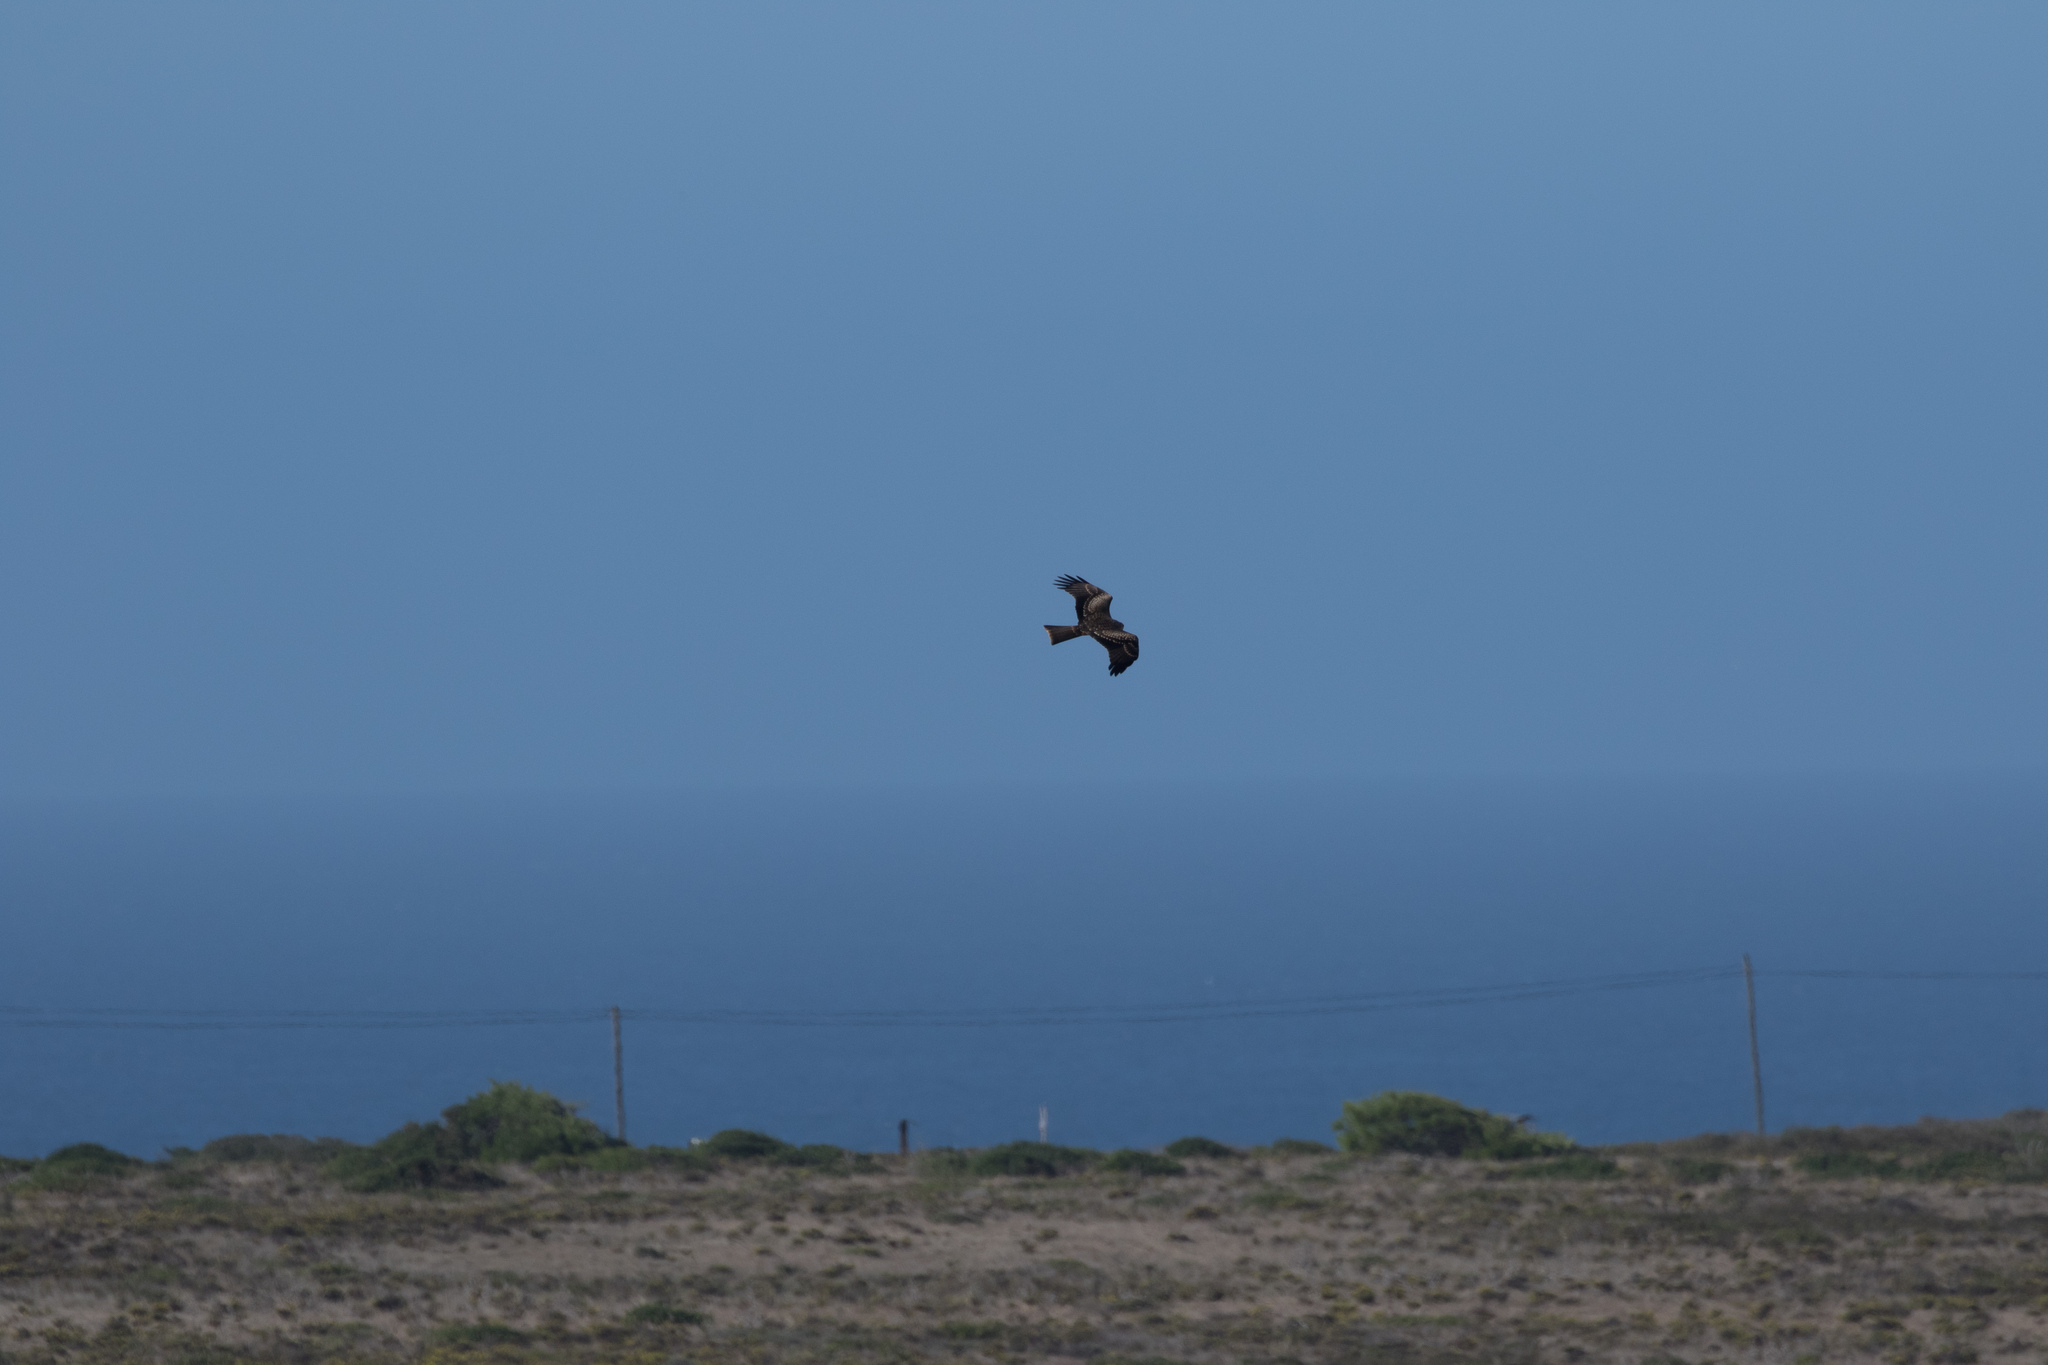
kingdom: Animalia
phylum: Chordata
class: Aves
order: Accipitriformes
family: Accipitridae
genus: Milvus
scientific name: Milvus migrans
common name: Black kite
